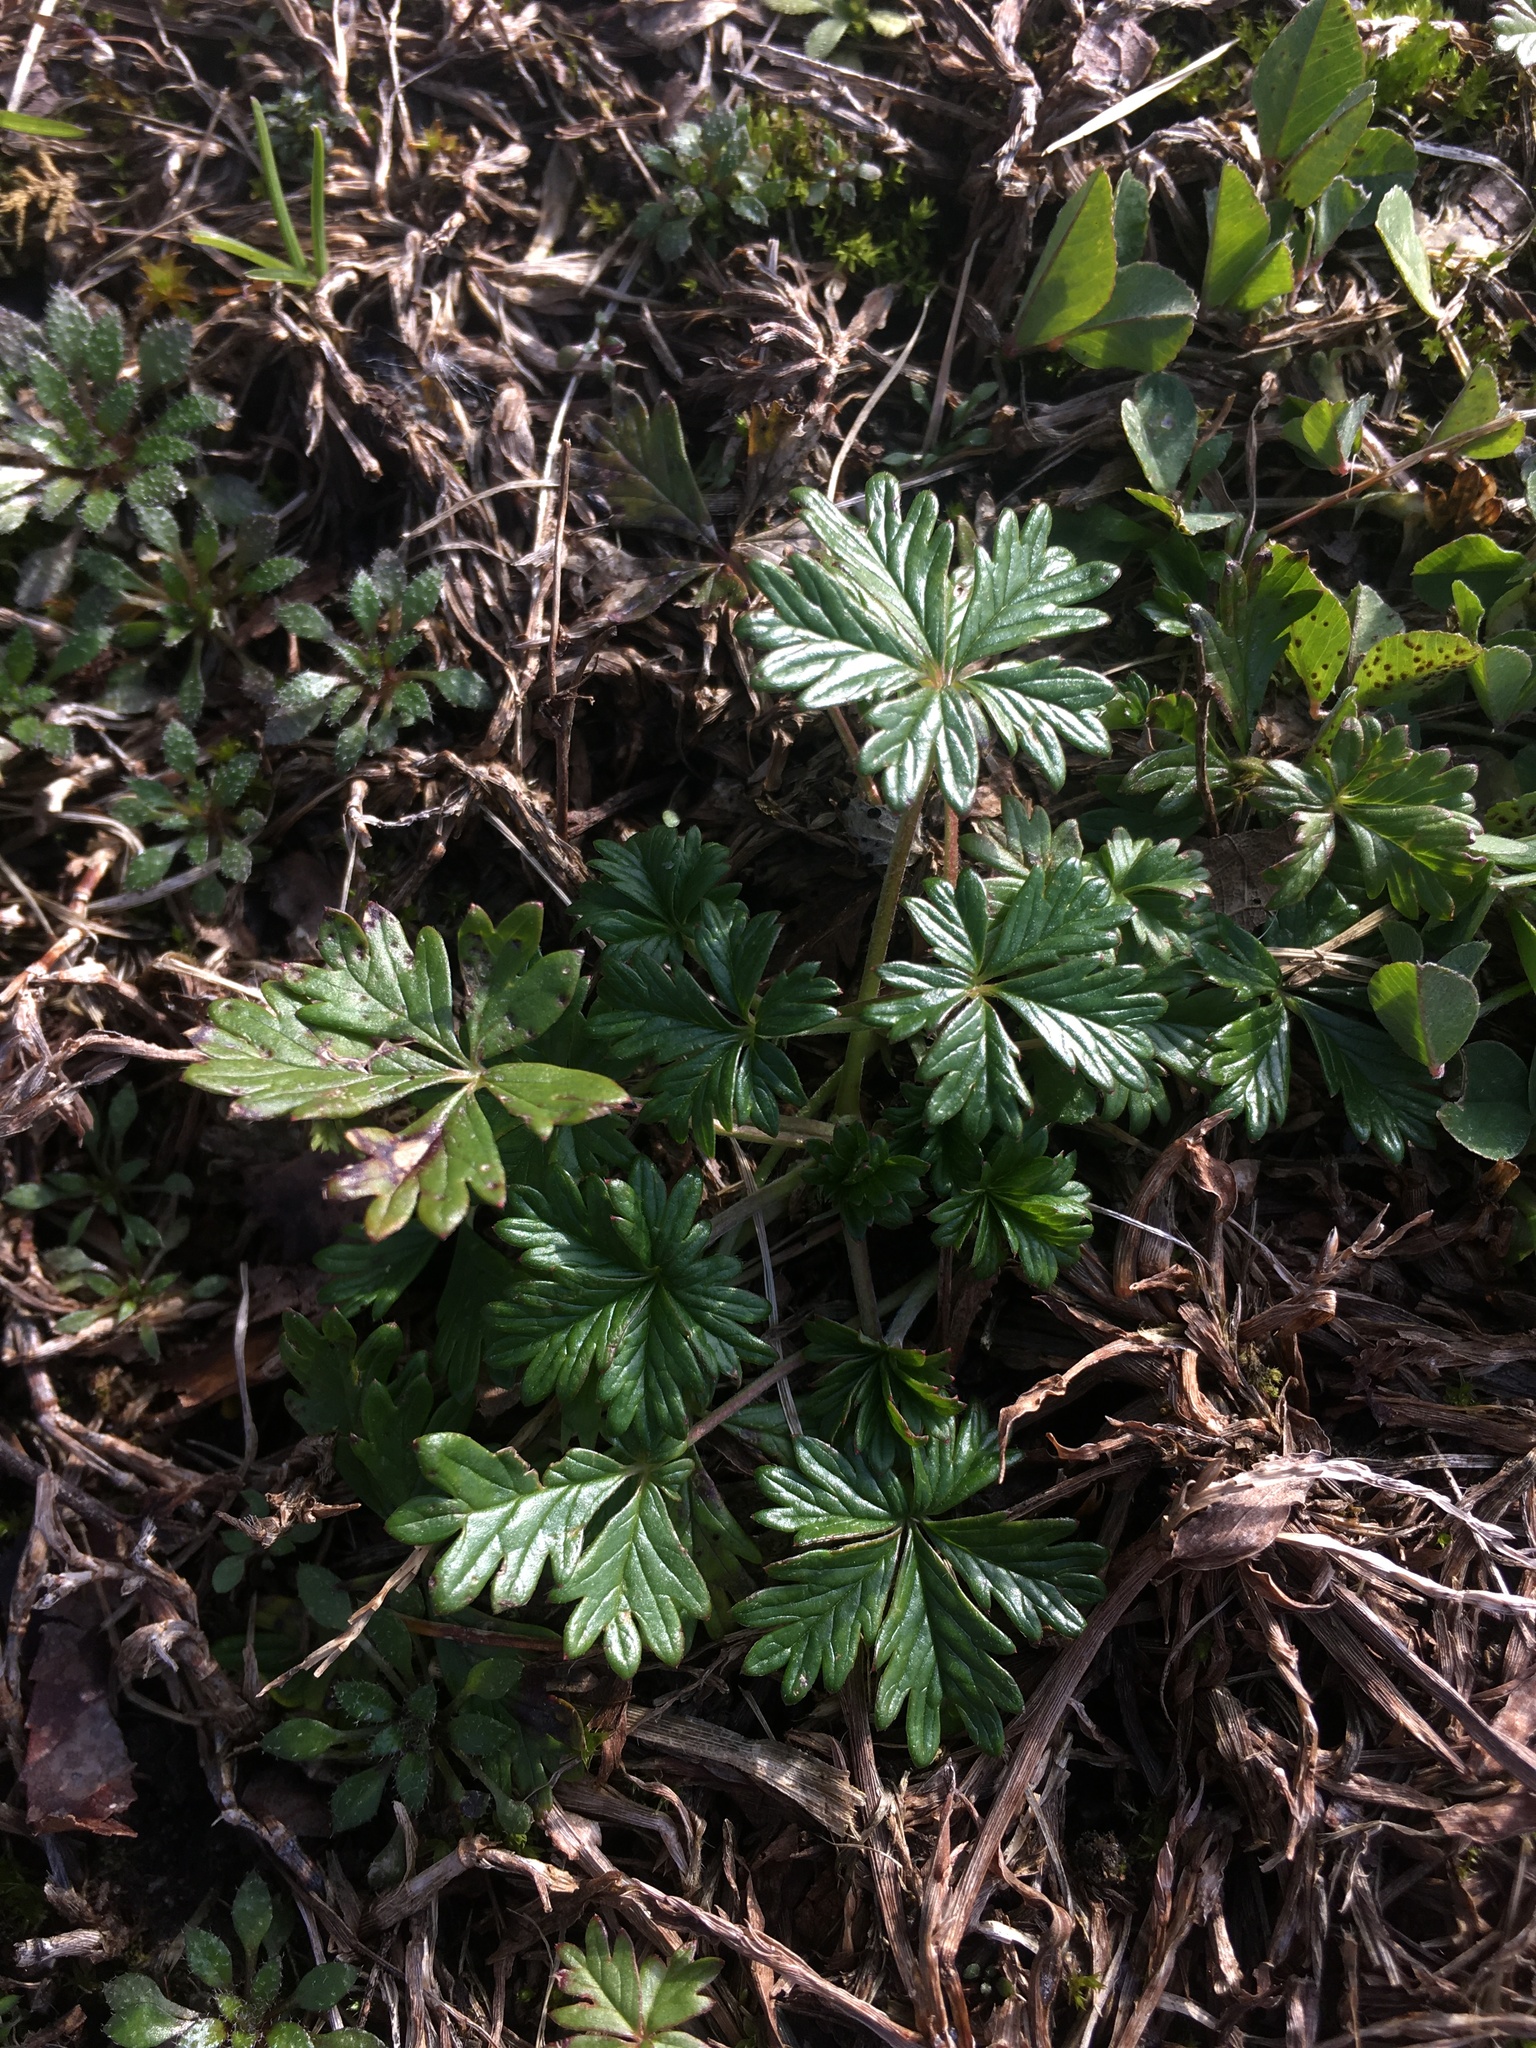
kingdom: Plantae
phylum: Tracheophyta
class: Magnoliopsida
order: Rosales
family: Rosaceae
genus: Potentilla
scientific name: Potentilla argentea
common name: Hoary cinquefoil
